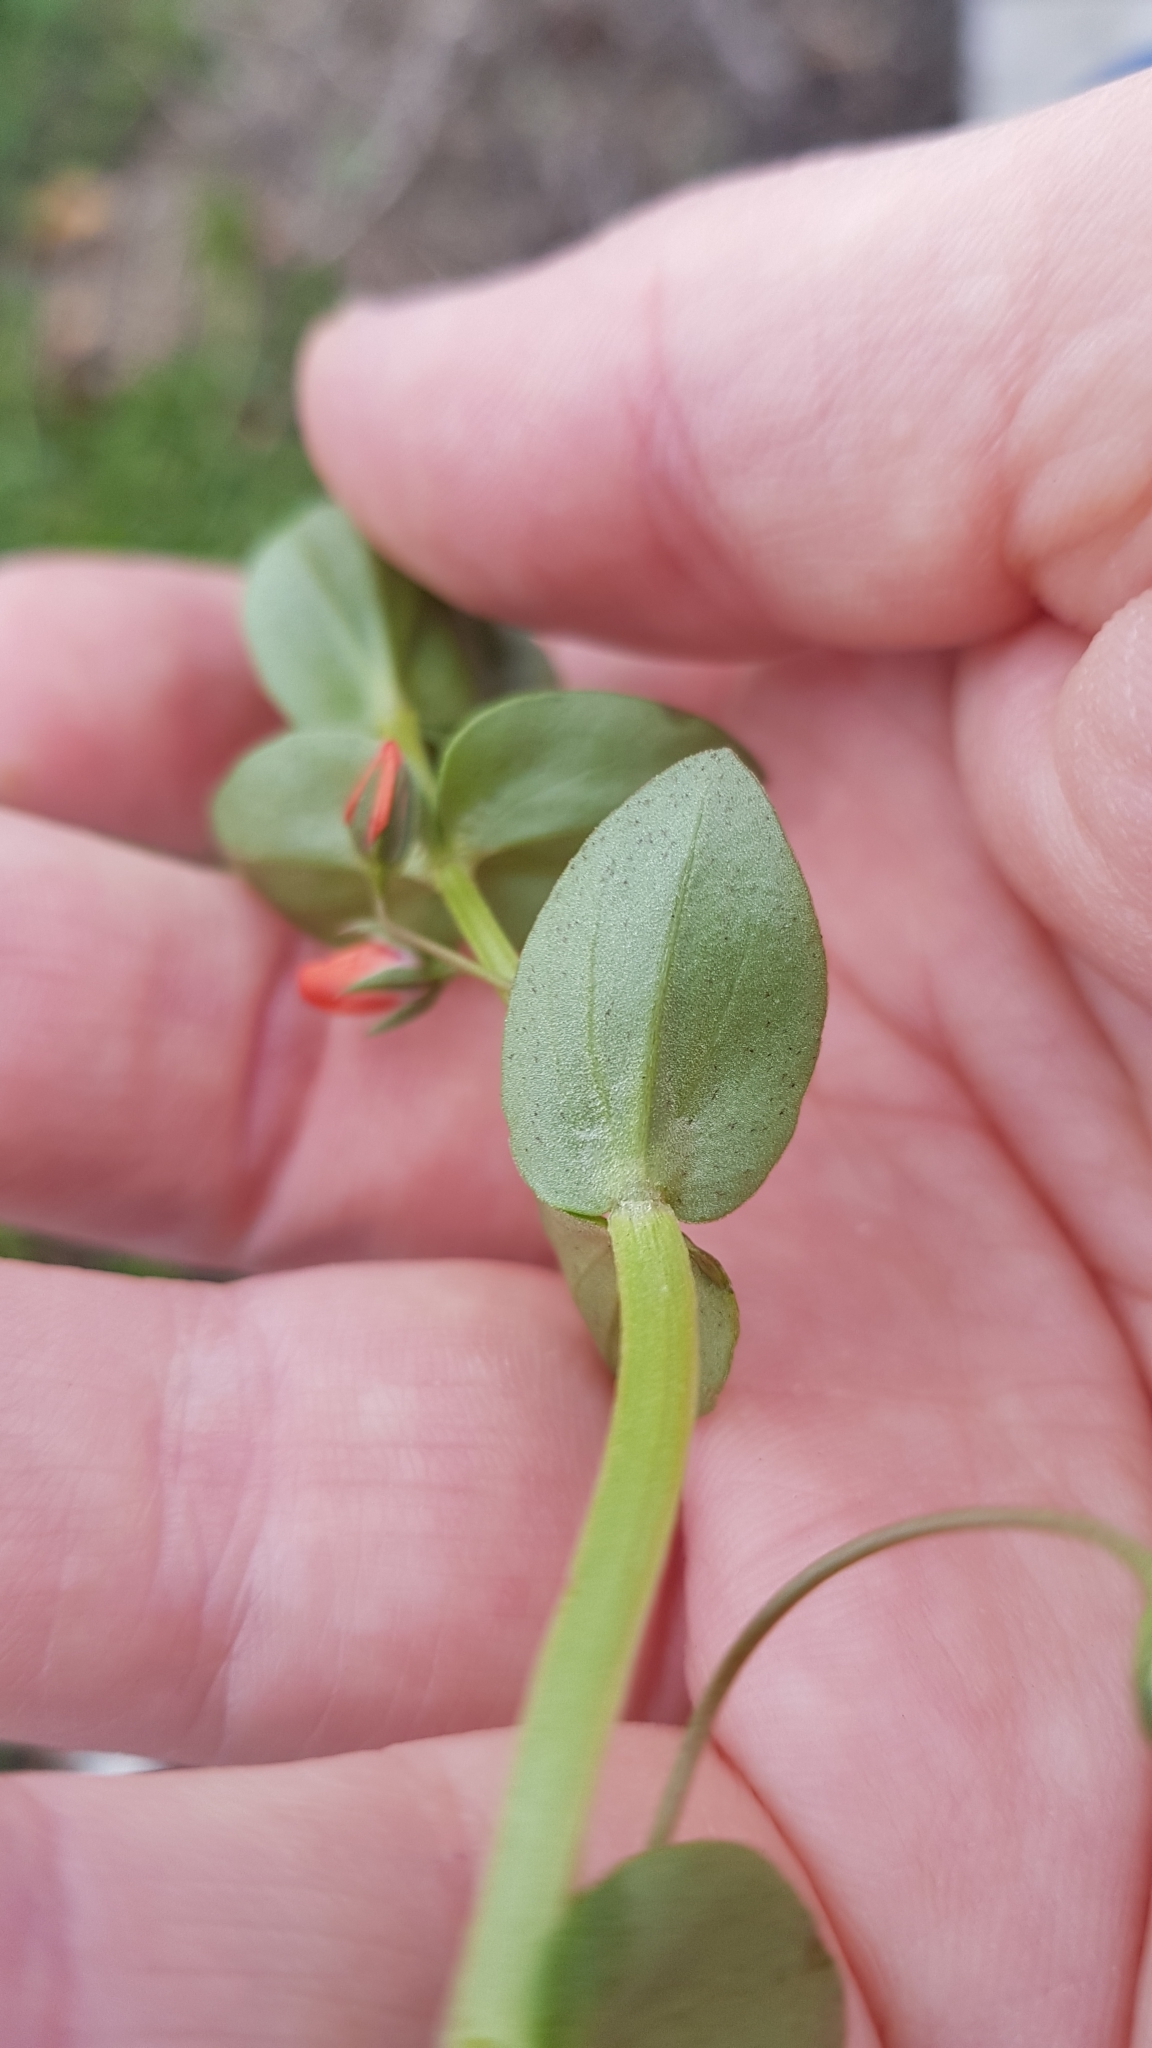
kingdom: Plantae
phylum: Tracheophyta
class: Magnoliopsida
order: Ericales
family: Primulaceae
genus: Lysimachia
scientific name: Lysimachia arvensis
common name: Scarlet pimpernel
